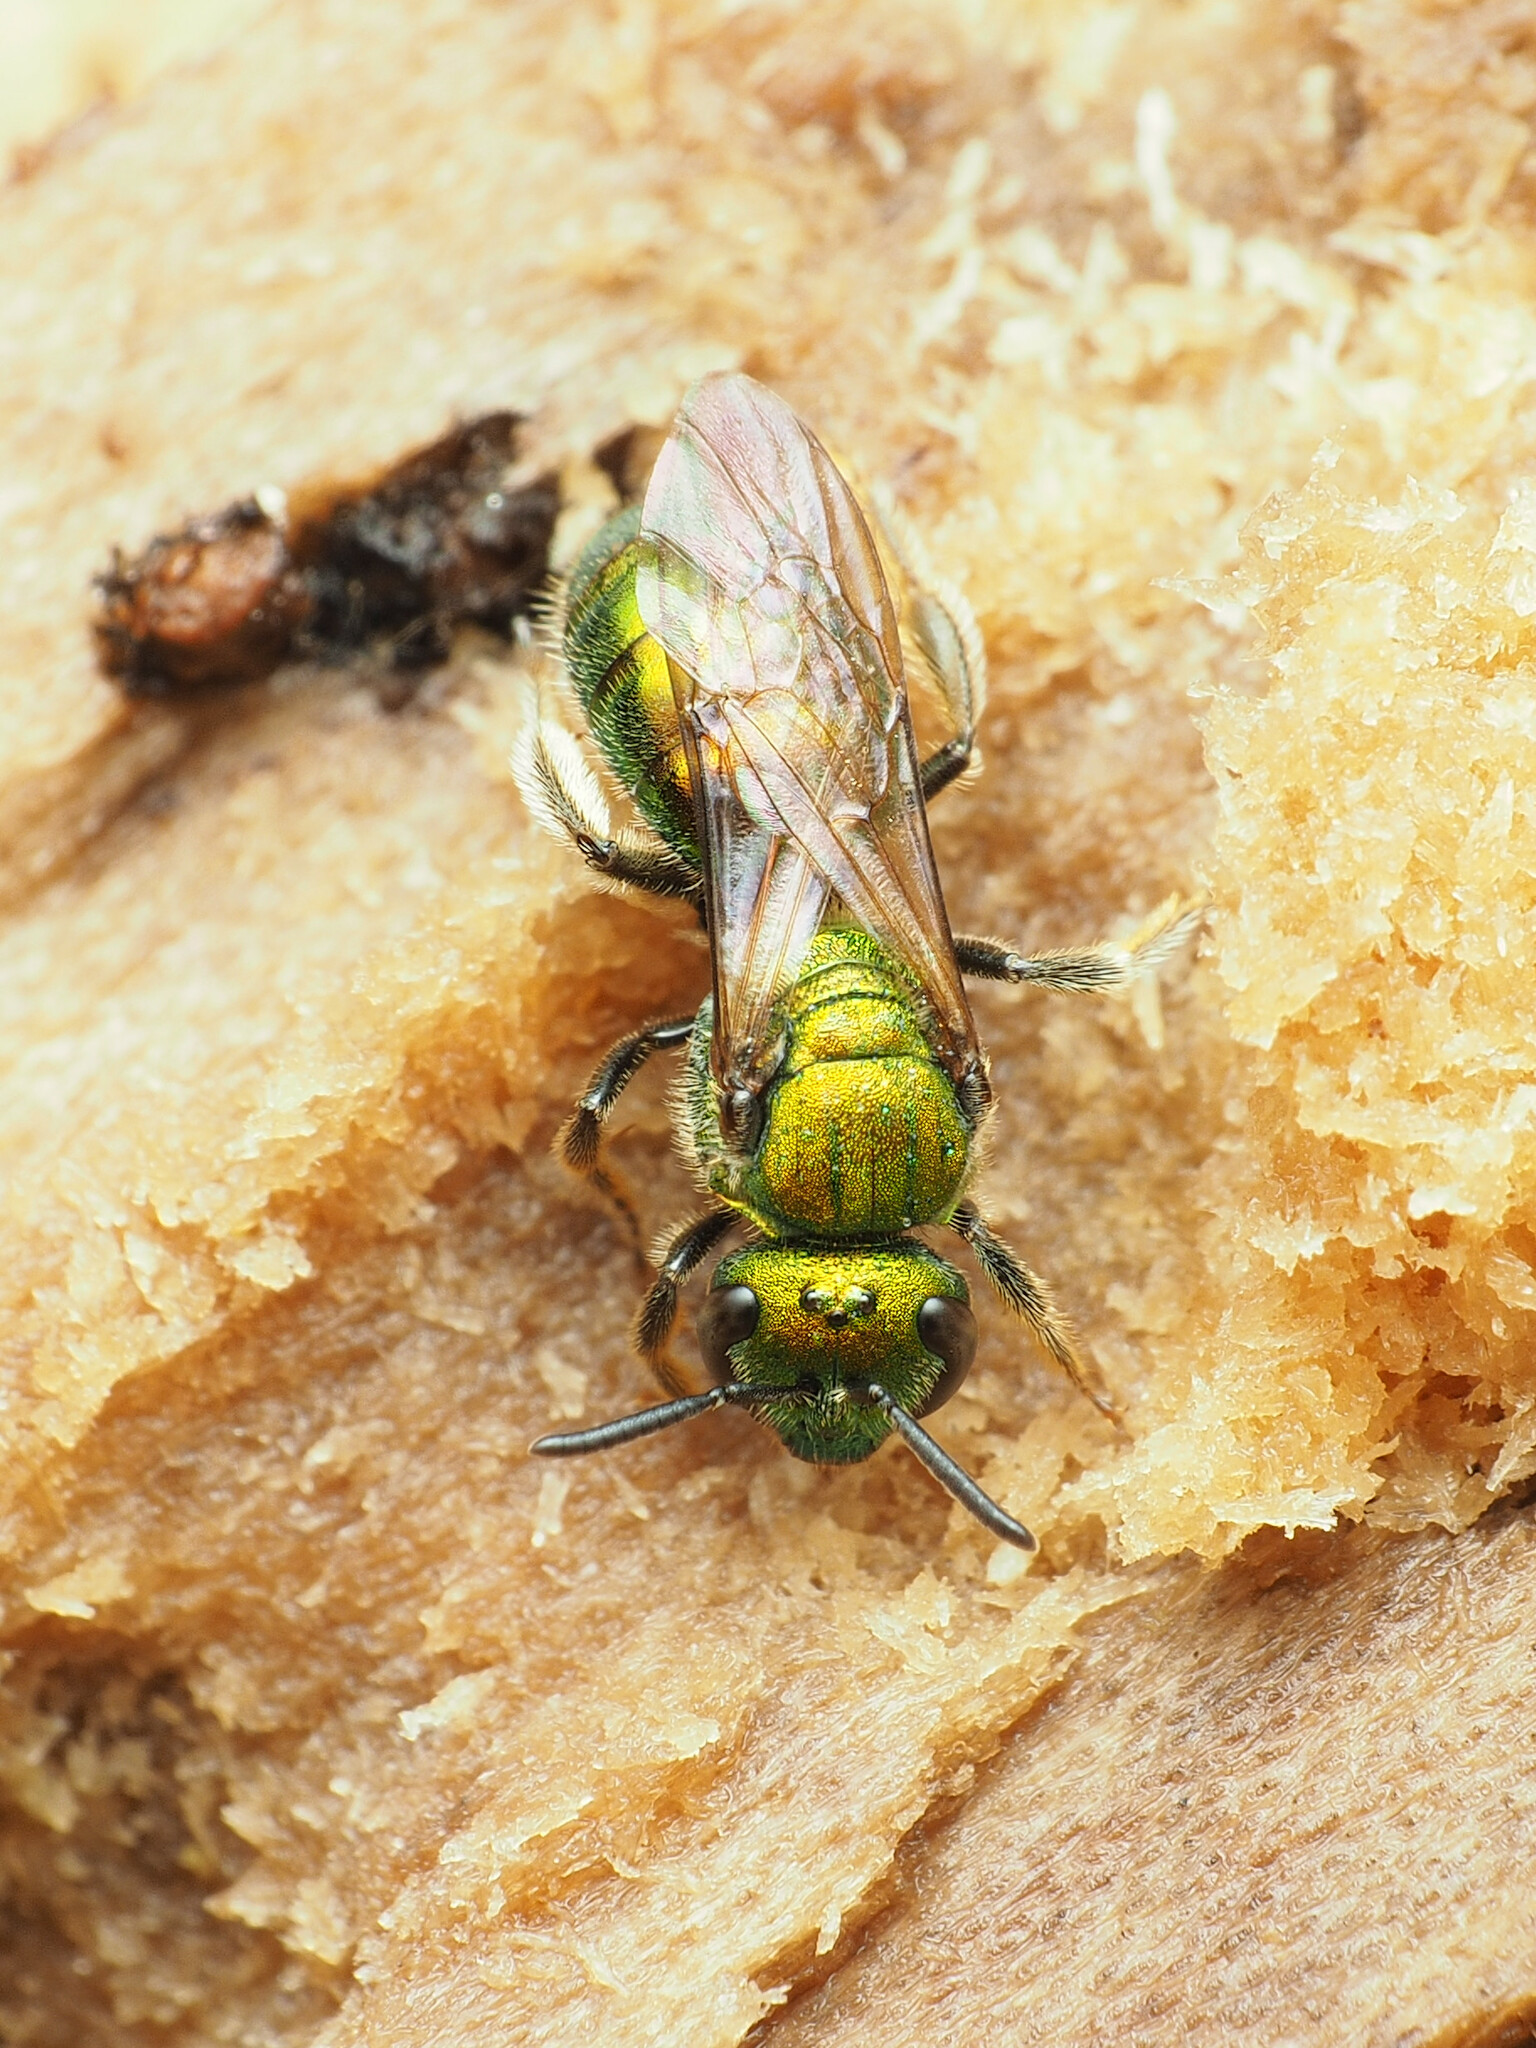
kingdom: Animalia
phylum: Arthropoda
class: Insecta
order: Hymenoptera
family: Halictidae
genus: Augochlora
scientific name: Augochlora pura
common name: Pure green sweat bee
